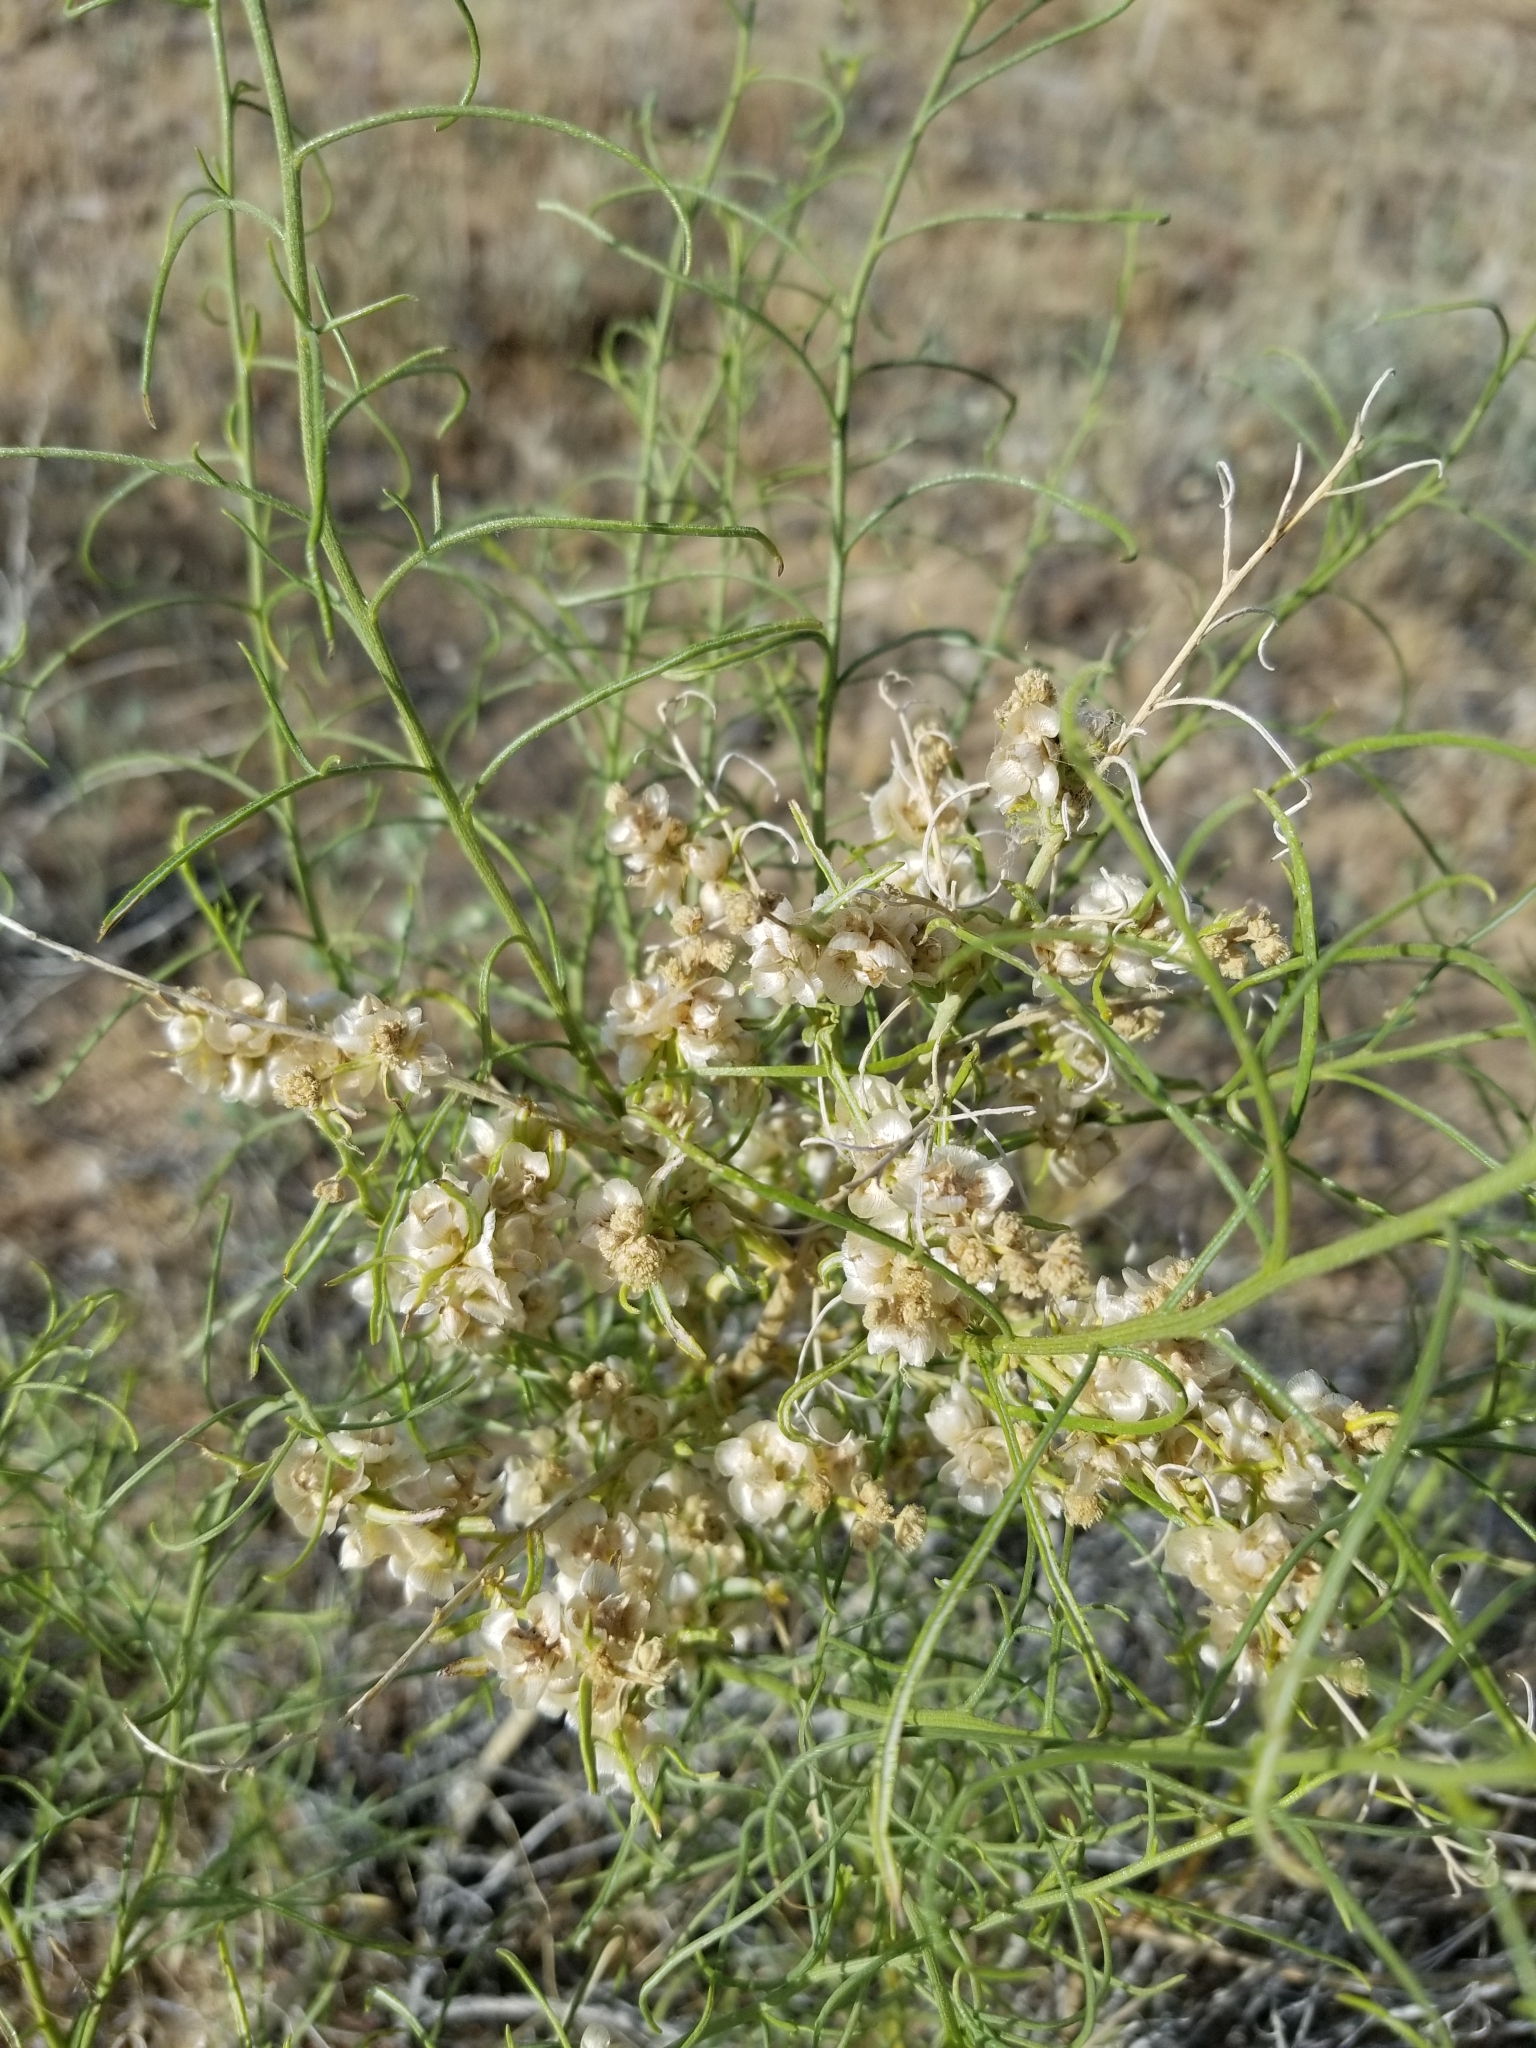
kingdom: Plantae
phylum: Tracheophyta
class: Magnoliopsida
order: Asterales
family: Asteraceae
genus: Ambrosia
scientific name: Ambrosia salsola
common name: Burrobrush
